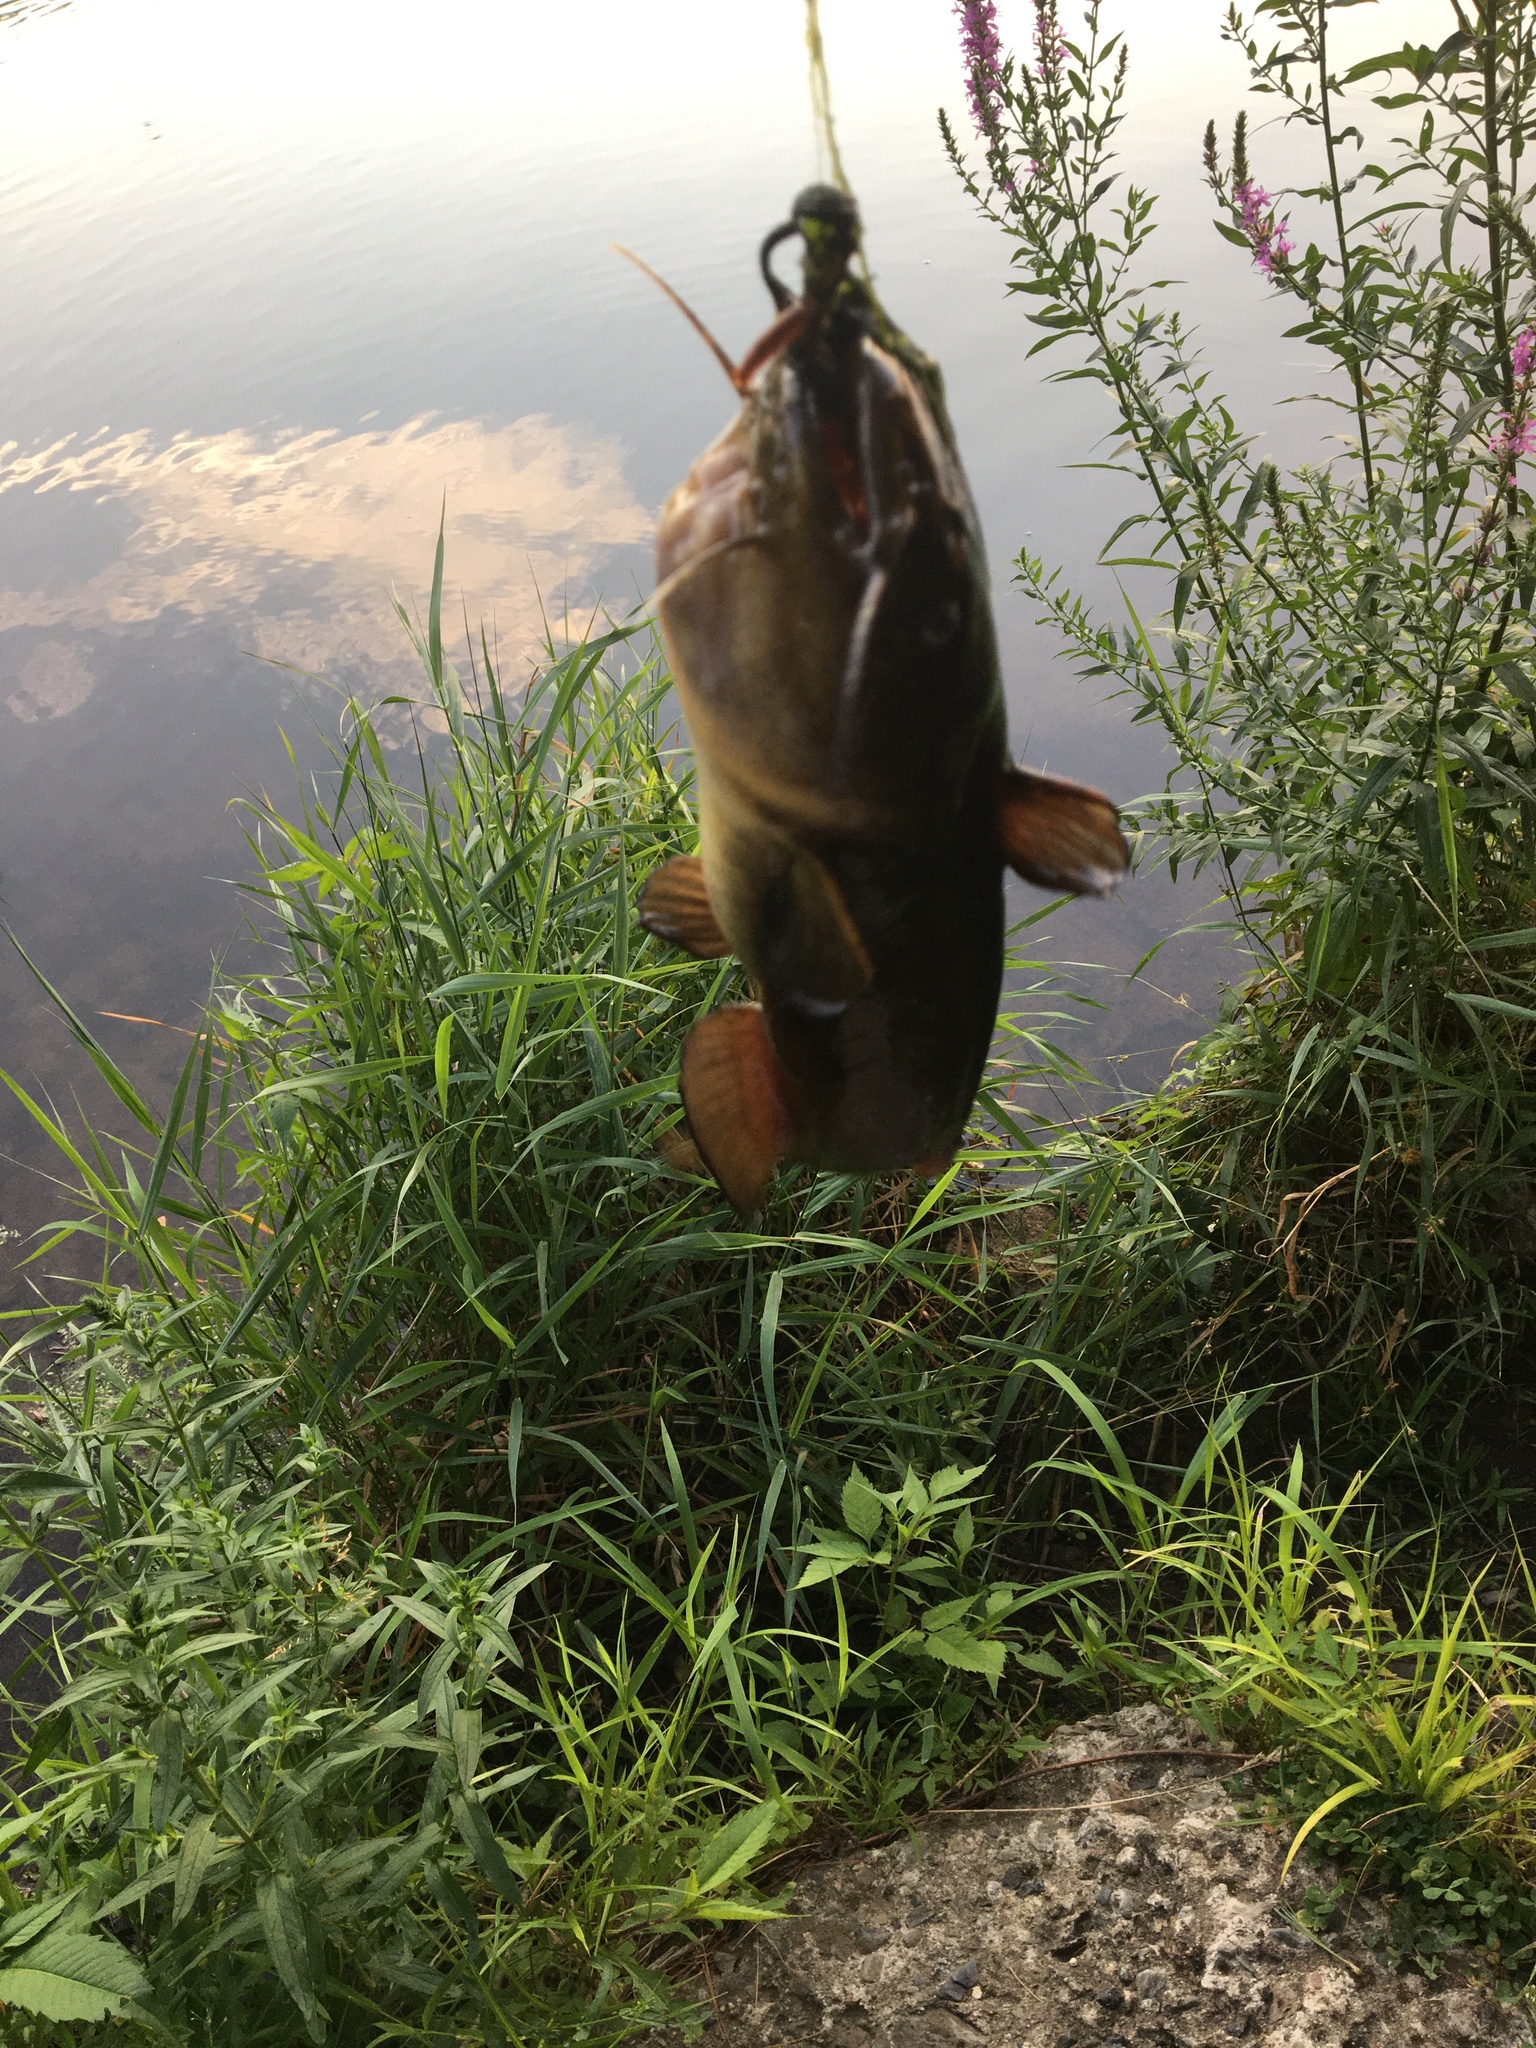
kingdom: Animalia
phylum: Chordata
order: Siluriformes
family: Ictaluridae
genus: Ameiurus
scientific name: Ameiurus natalis
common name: Yellow bullhead
